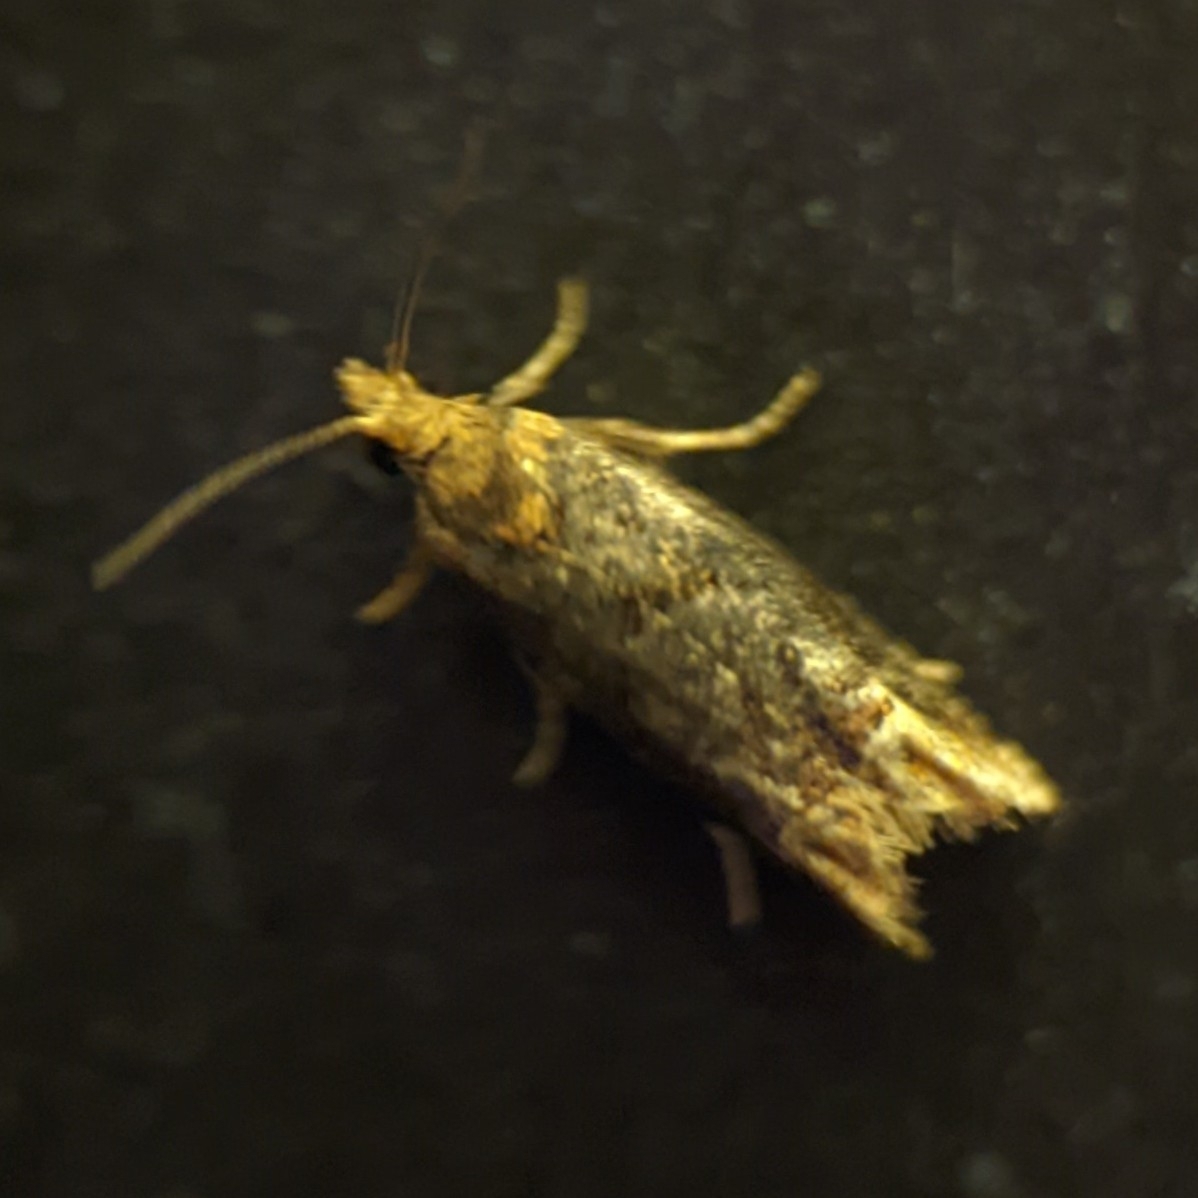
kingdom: Animalia
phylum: Arthropoda
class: Insecta
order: Lepidoptera
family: Tortricidae
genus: Eucosma
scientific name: Eucosma ochroterminana
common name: Buff-tipped eucosma moth
